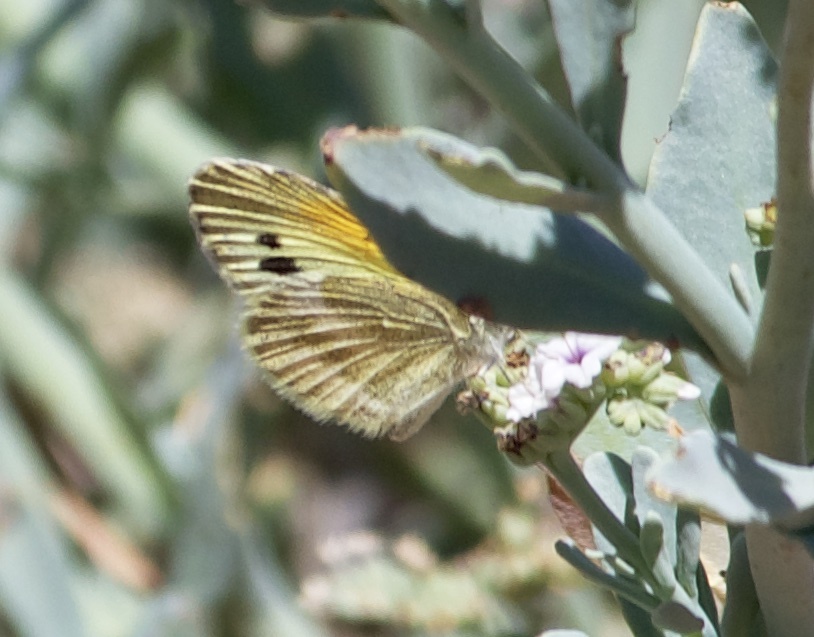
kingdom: Animalia
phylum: Arthropoda
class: Insecta
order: Lepidoptera
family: Pieridae
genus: Nathalis
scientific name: Nathalis iole
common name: Dainty sulphur
